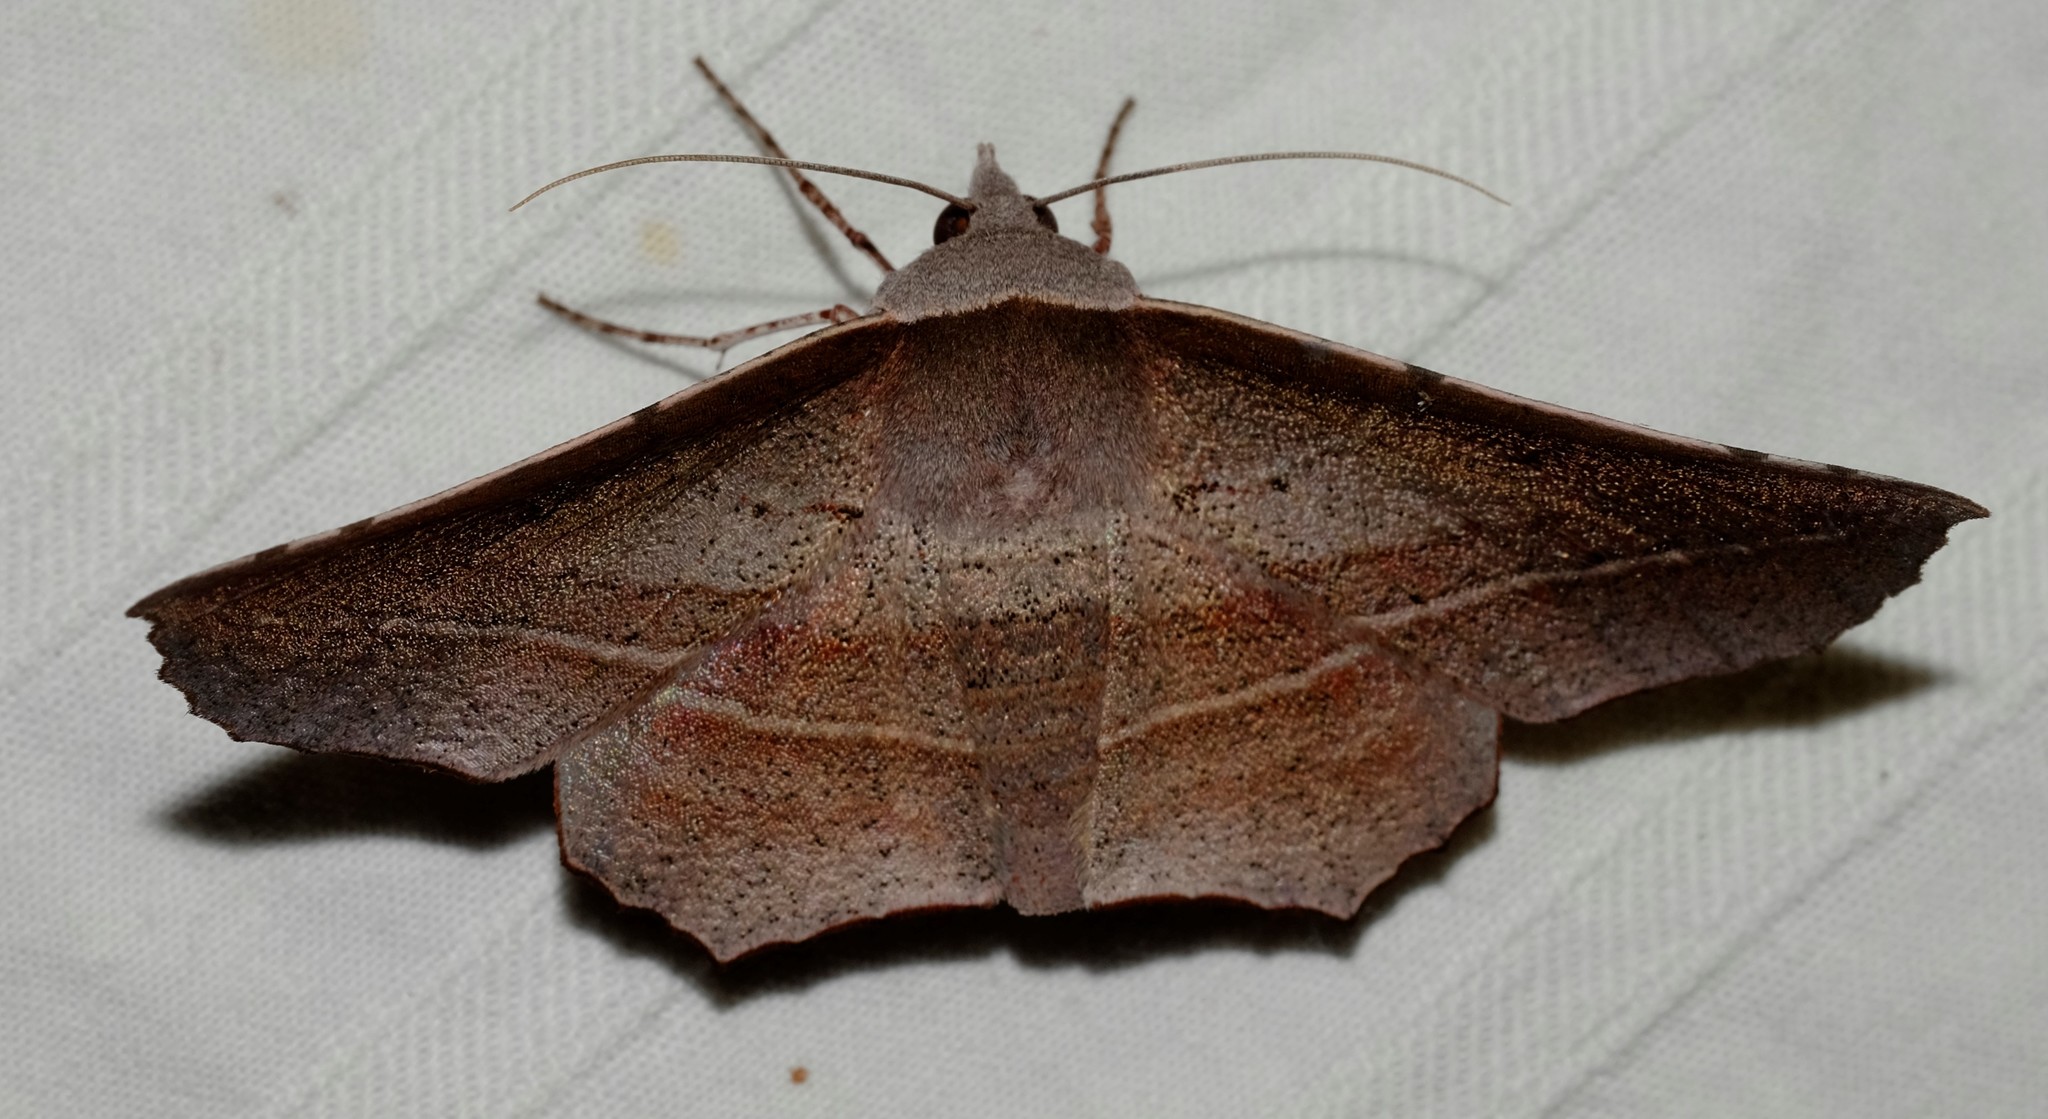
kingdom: Animalia
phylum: Arthropoda
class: Insecta
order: Lepidoptera
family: Geometridae
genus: Oenochroma
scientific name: Oenochroma vetustaria
